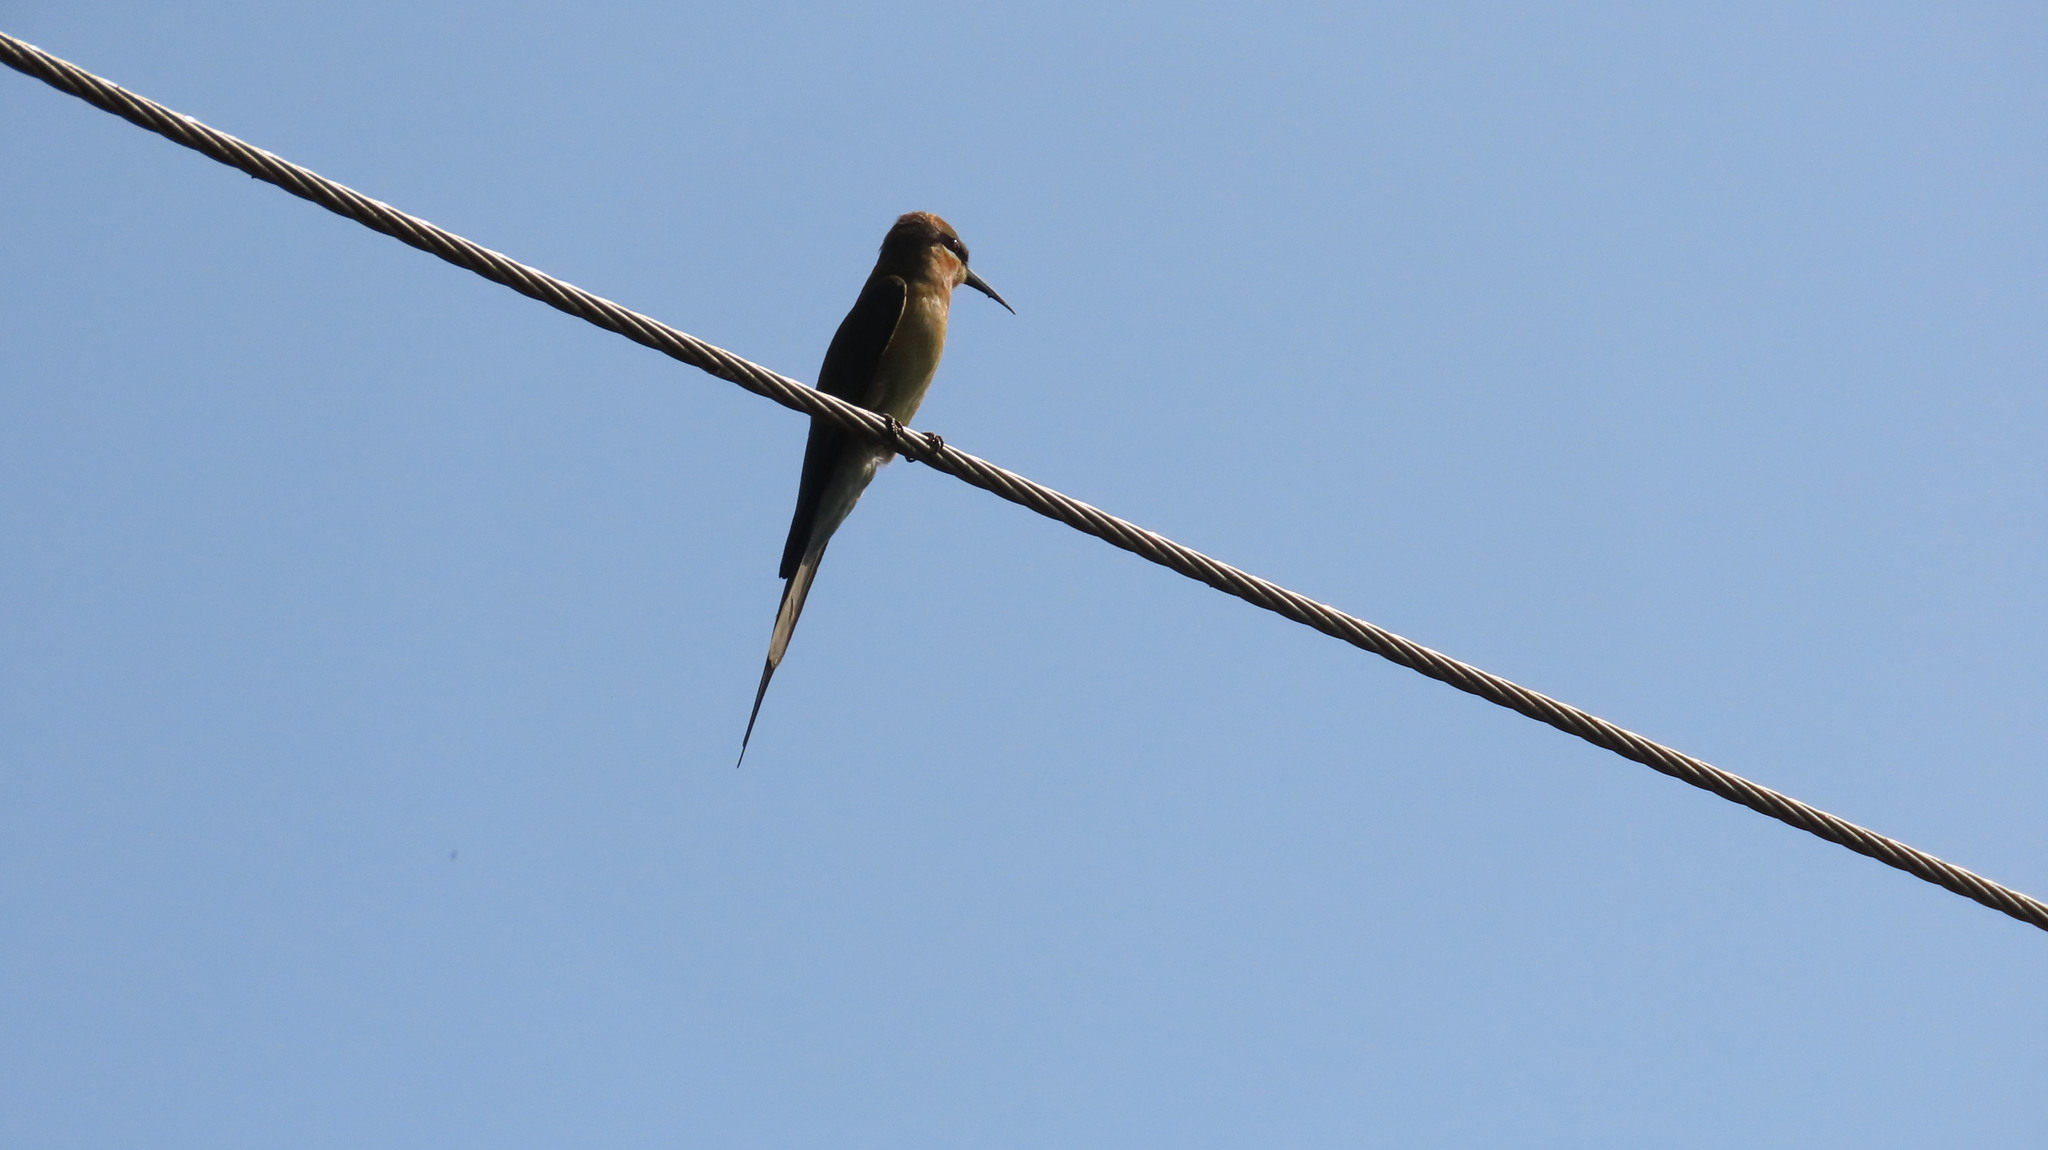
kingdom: Animalia
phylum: Chordata
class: Aves
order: Coraciiformes
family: Meropidae
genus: Merops
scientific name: Merops philippinus
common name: Blue-tailed bee-eater
